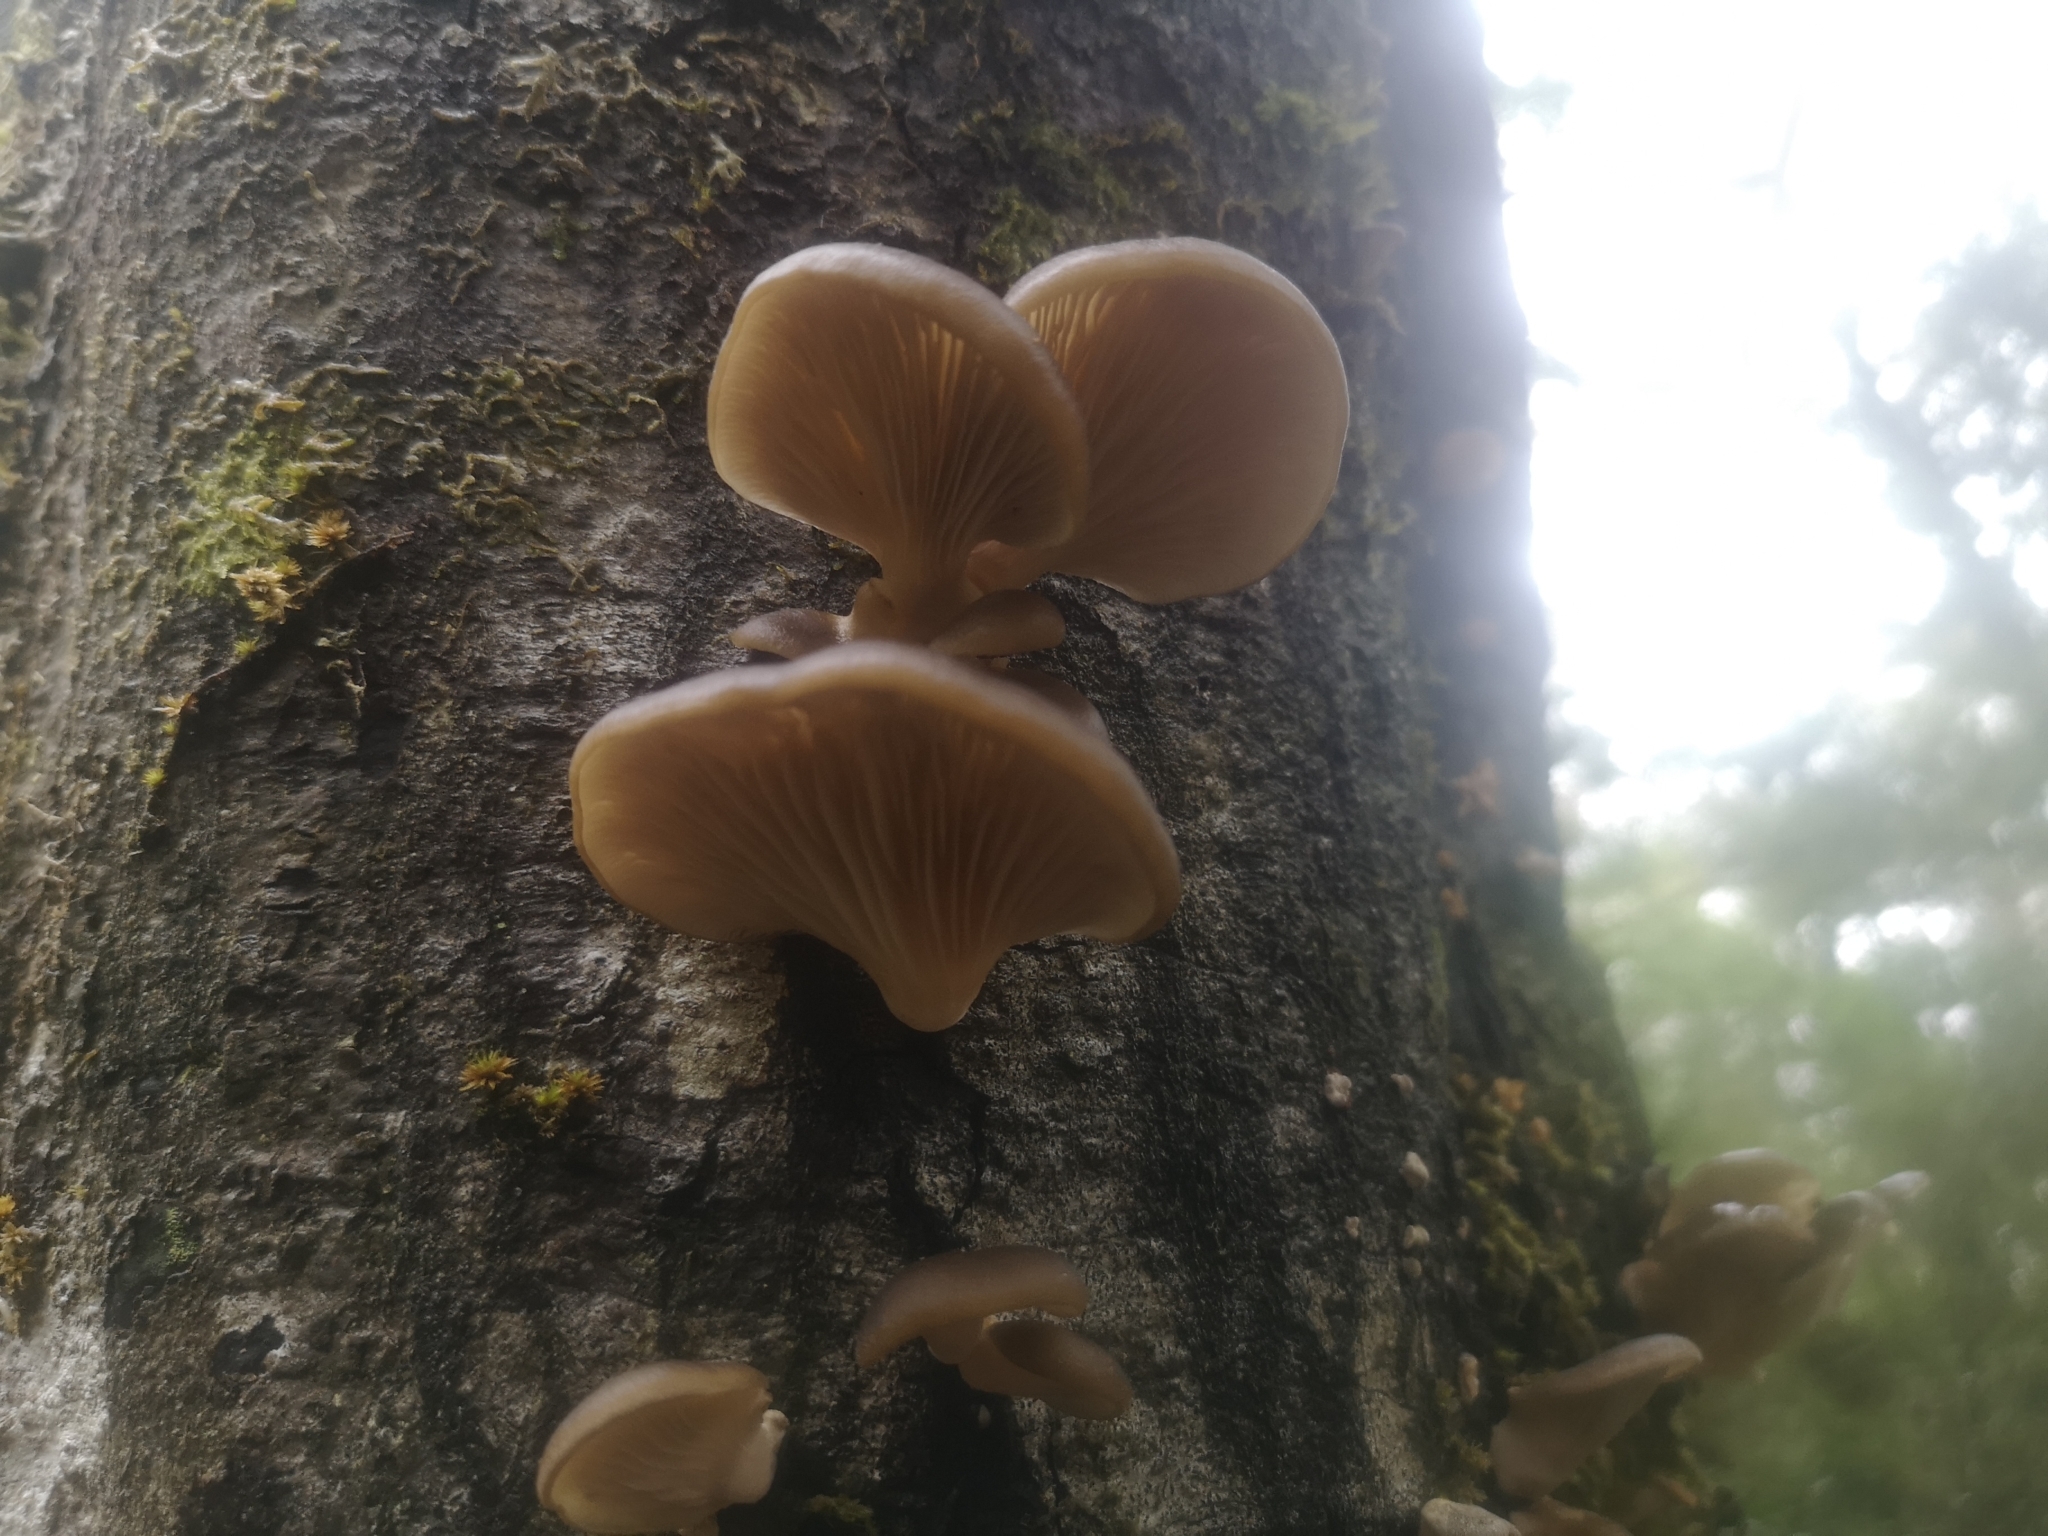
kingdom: Fungi
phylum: Basidiomycota
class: Agaricomycetes
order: Agaricales
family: Pleurotaceae
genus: Pleurotus
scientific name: Pleurotus purpureo-olivaceus
